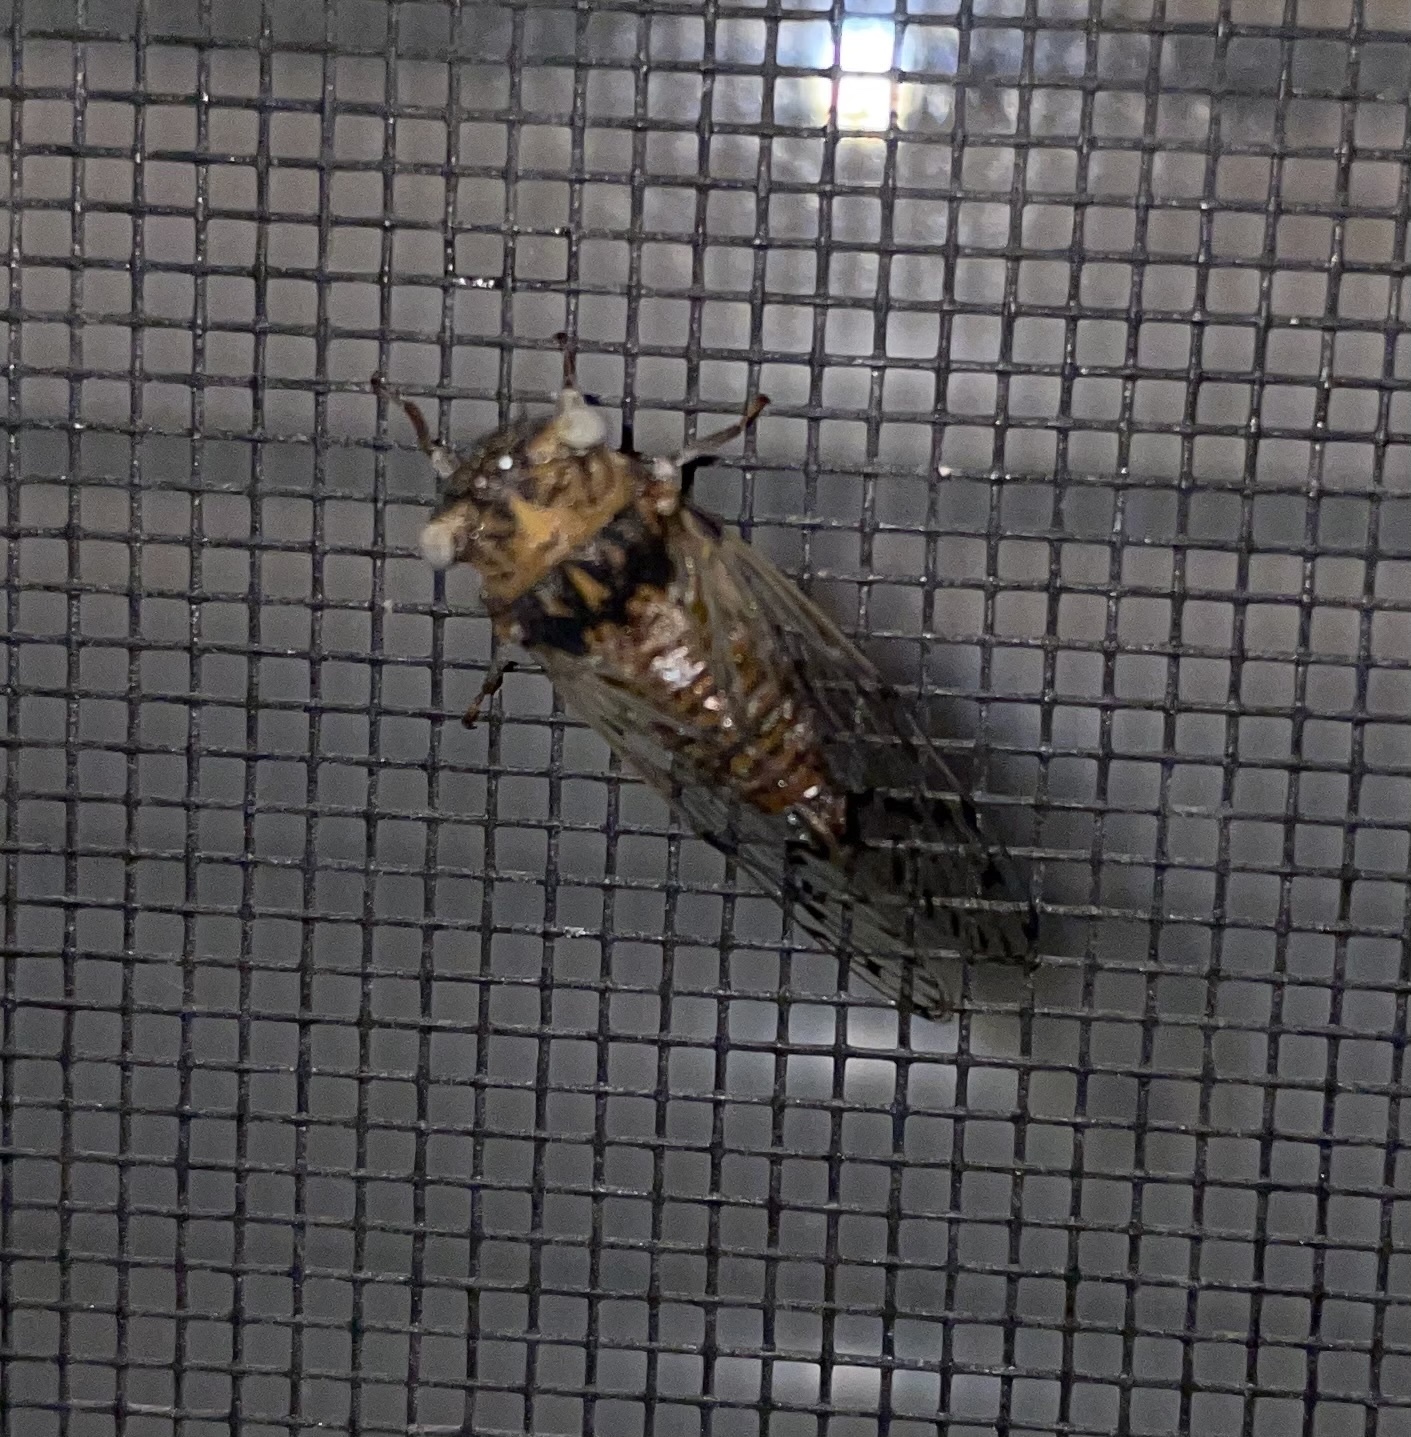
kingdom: Animalia
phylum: Arthropoda
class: Insecta
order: Hemiptera
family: Cicadidae
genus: Pacarina
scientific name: Pacarina puella
